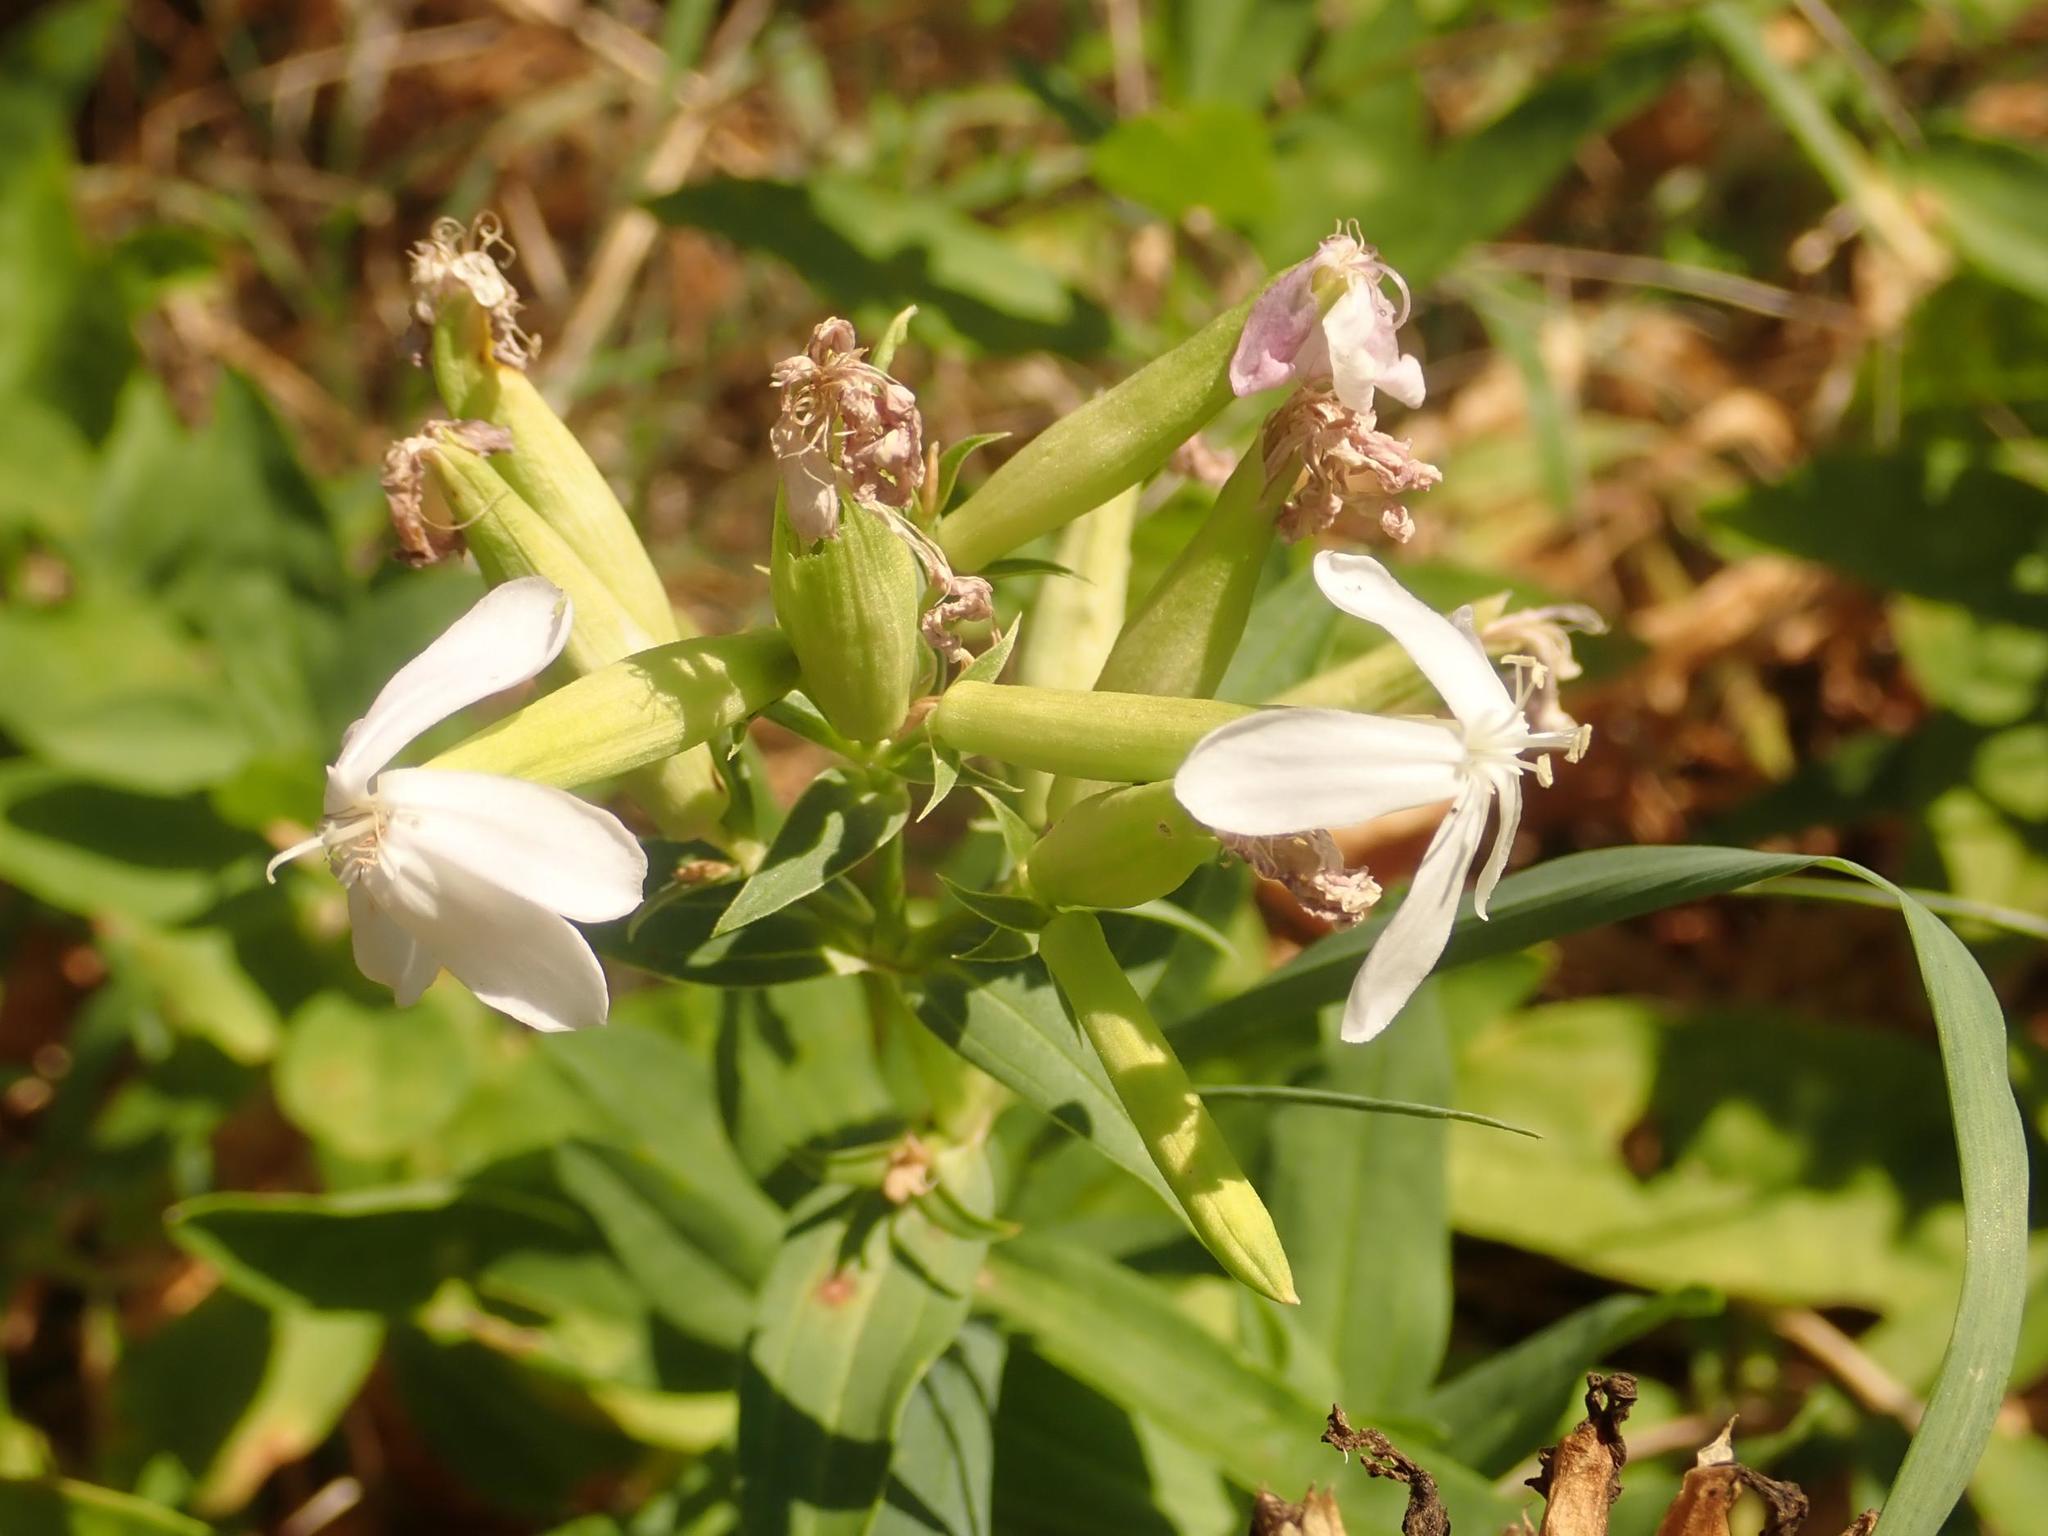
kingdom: Plantae
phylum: Tracheophyta
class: Magnoliopsida
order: Caryophyllales
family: Caryophyllaceae
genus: Saponaria
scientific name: Saponaria officinalis
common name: Soapwort
